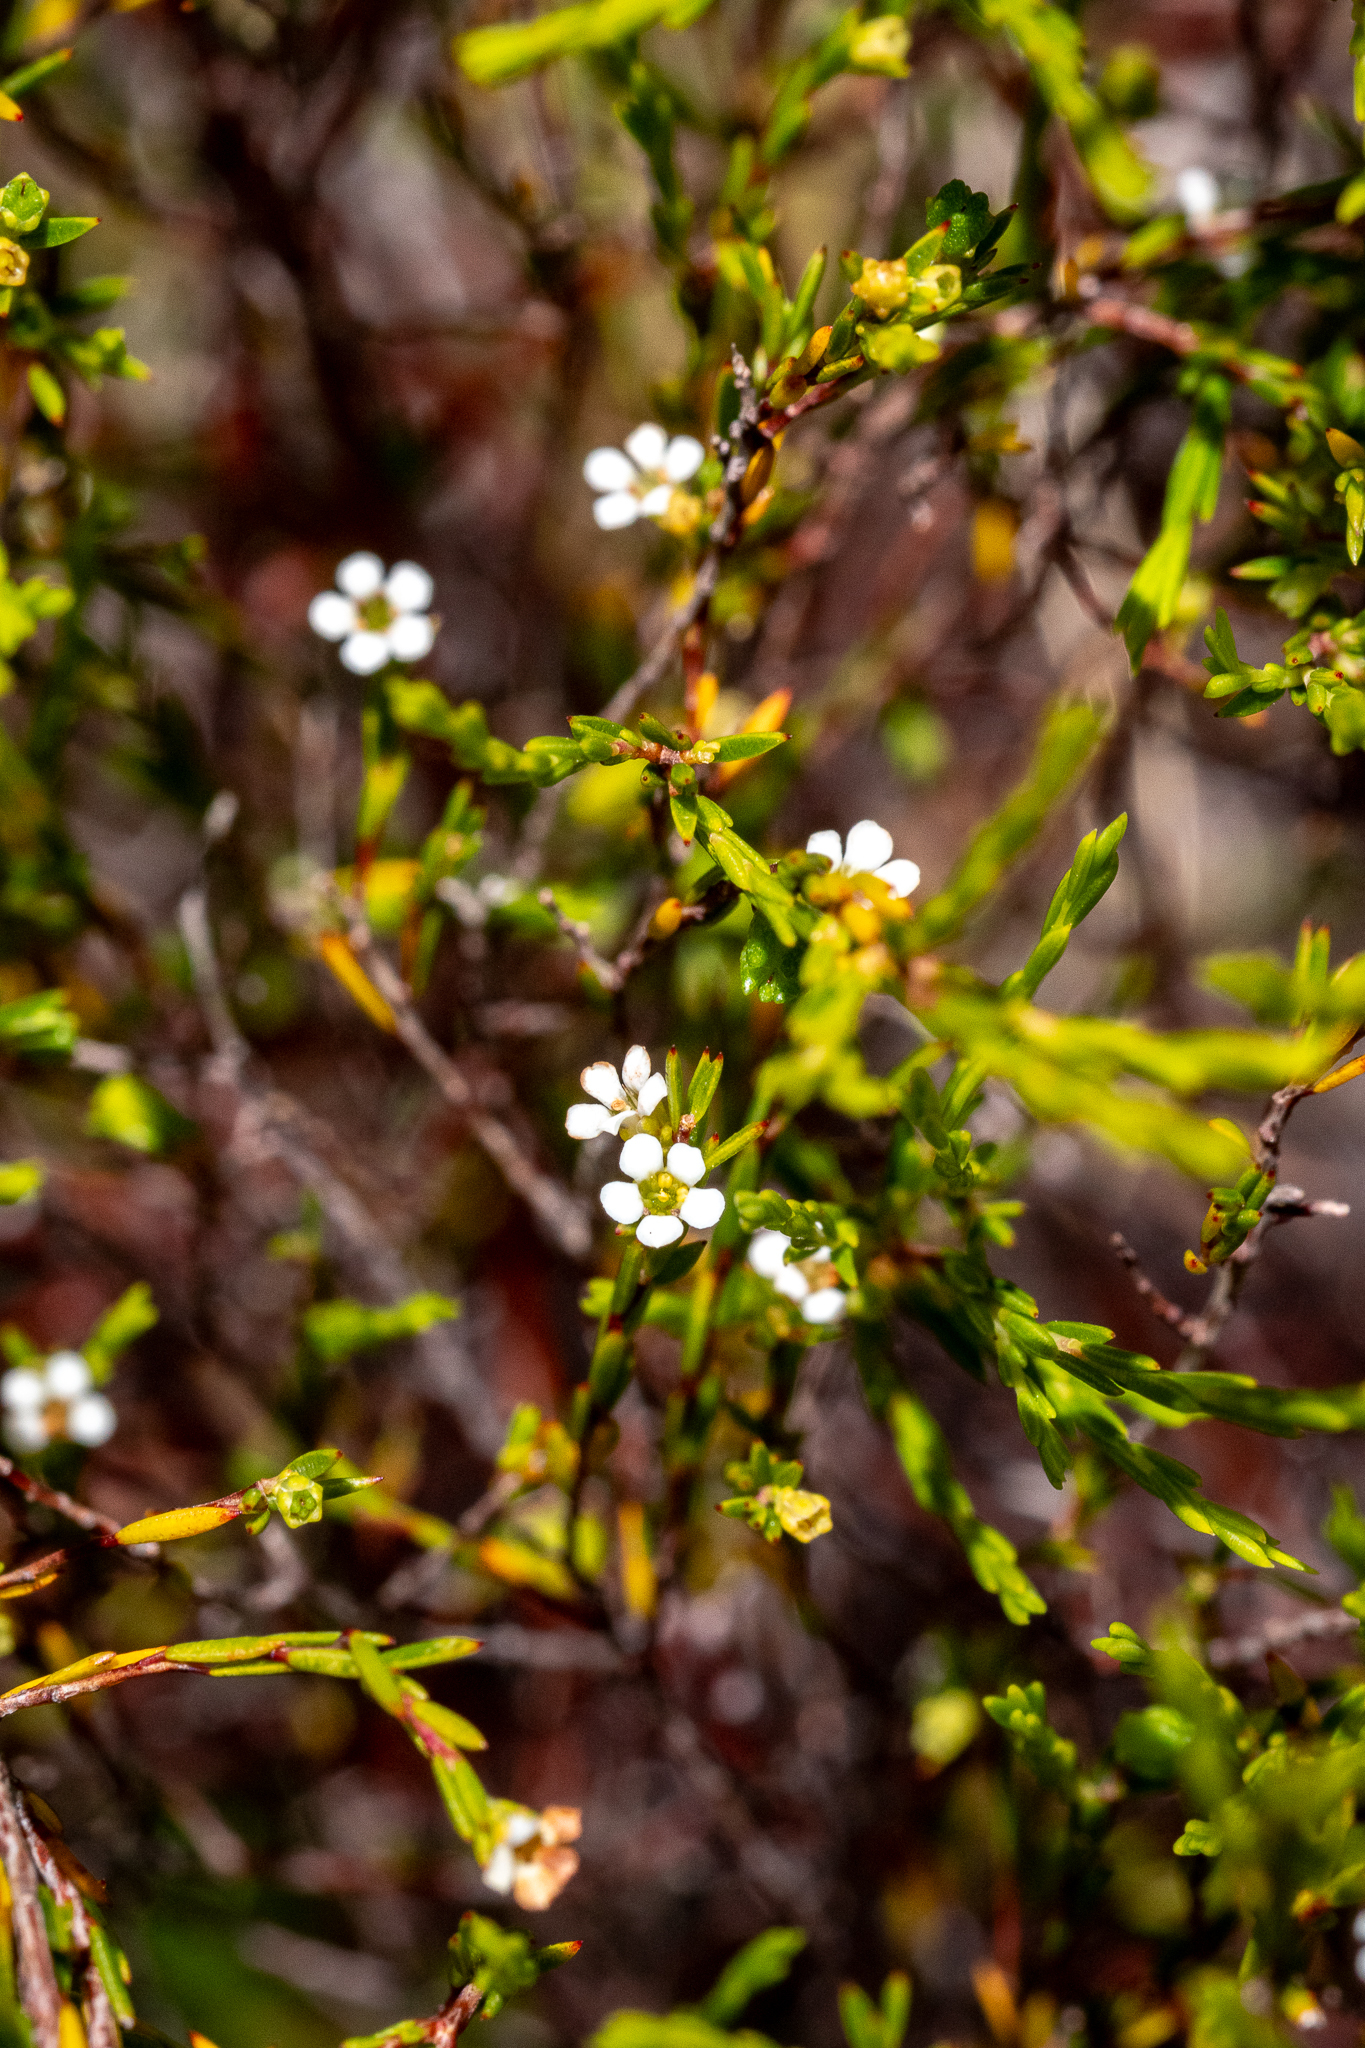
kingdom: Plantae
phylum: Tracheophyta
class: Magnoliopsida
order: Sapindales
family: Rutaceae
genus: Coleonema
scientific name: Coleonema juniperinum
